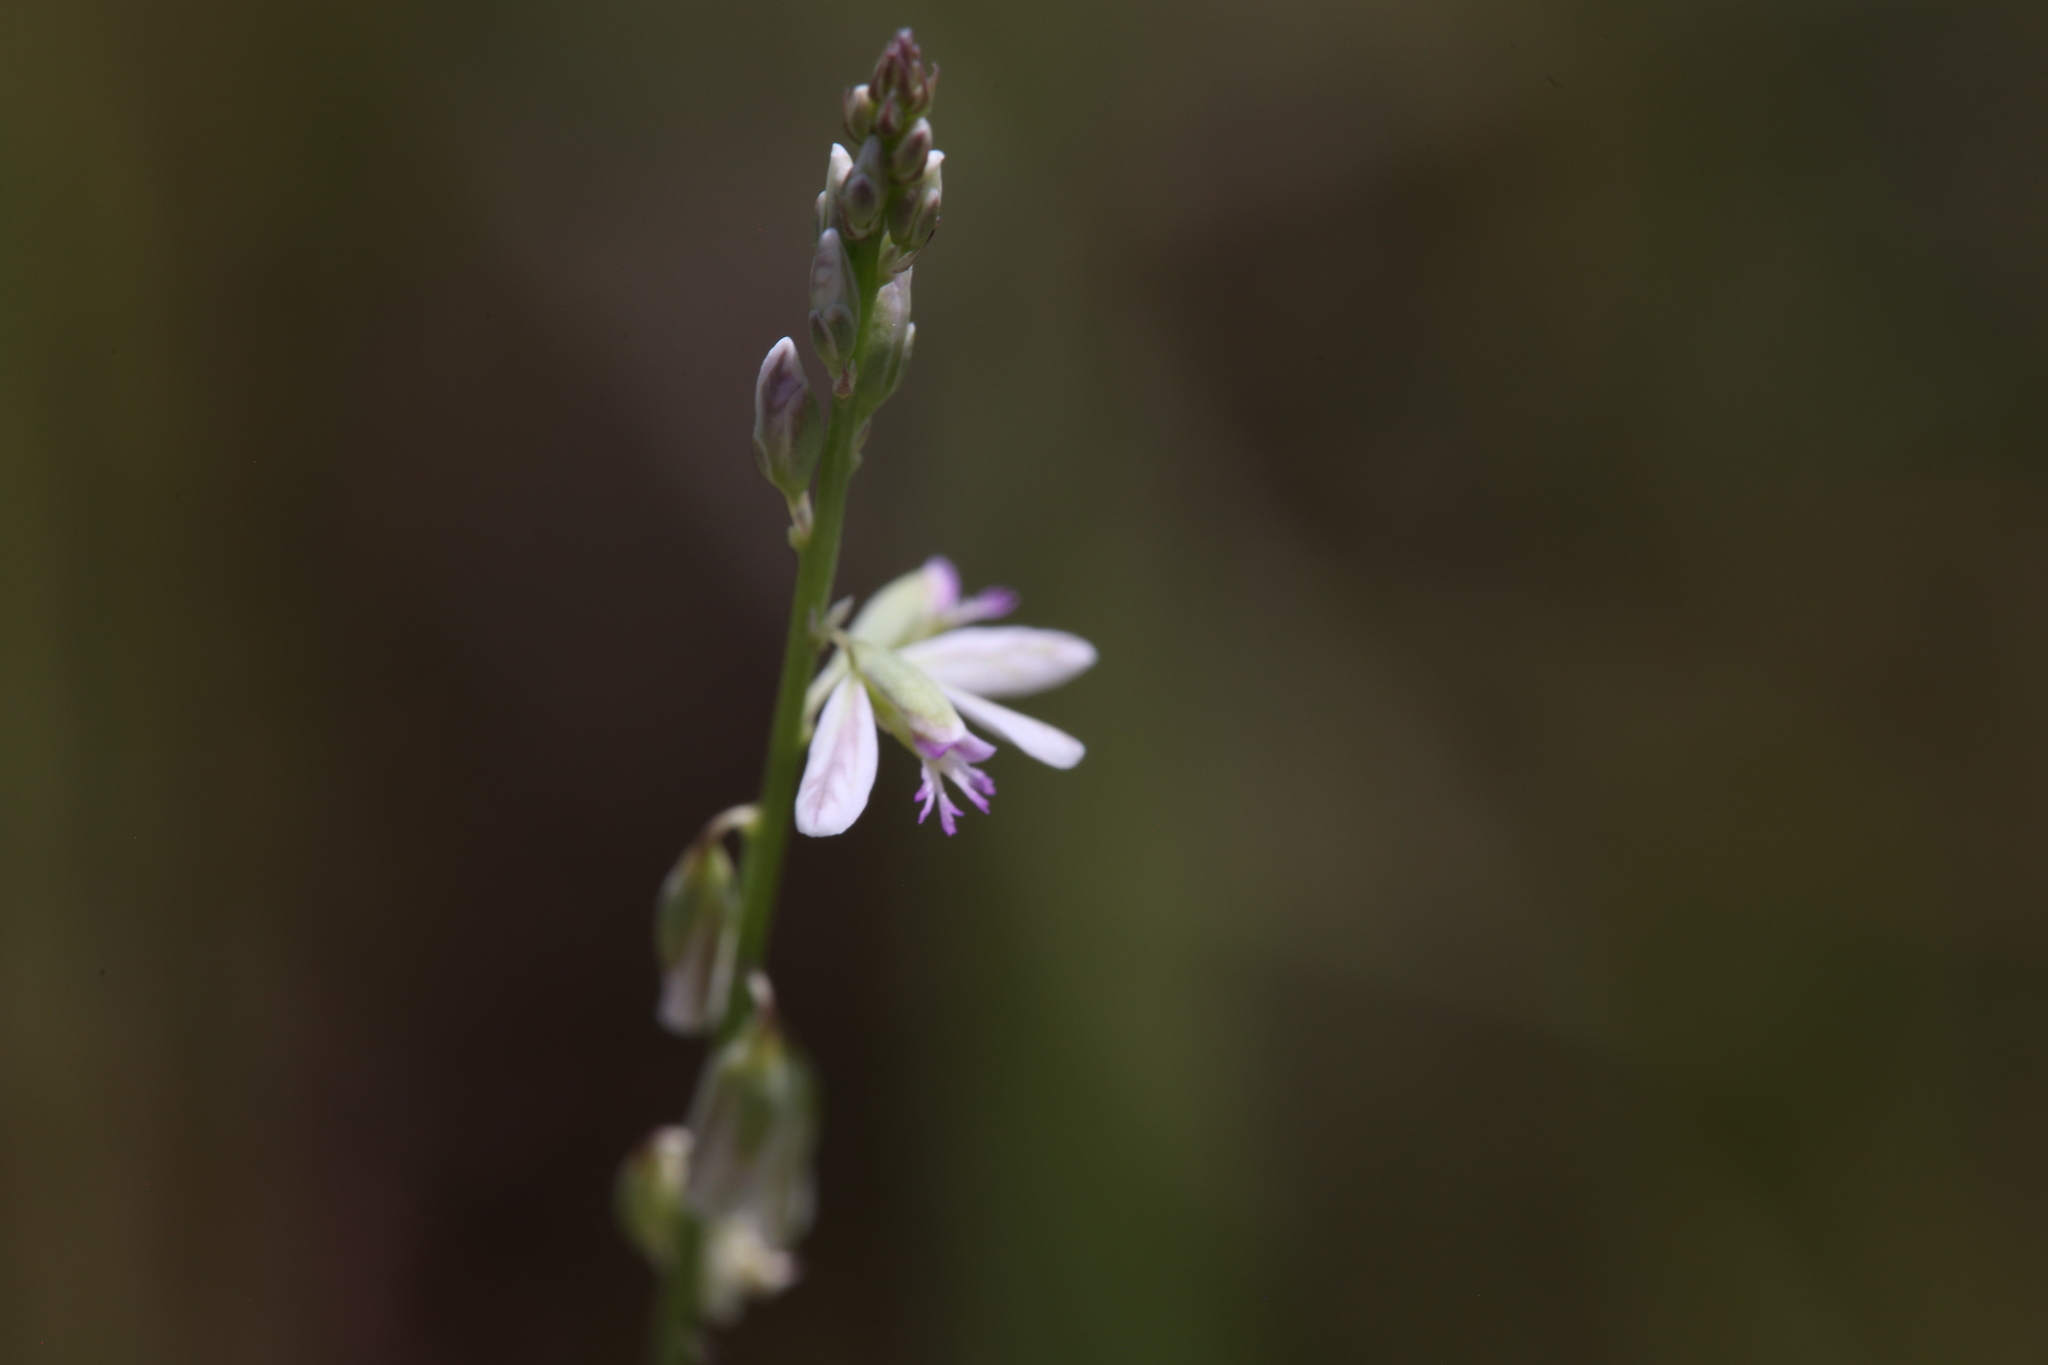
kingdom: Plantae
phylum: Tracheophyta
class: Magnoliopsida
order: Fabales
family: Polygalaceae
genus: Polygala
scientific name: Polygala paniculata
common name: Orosne
